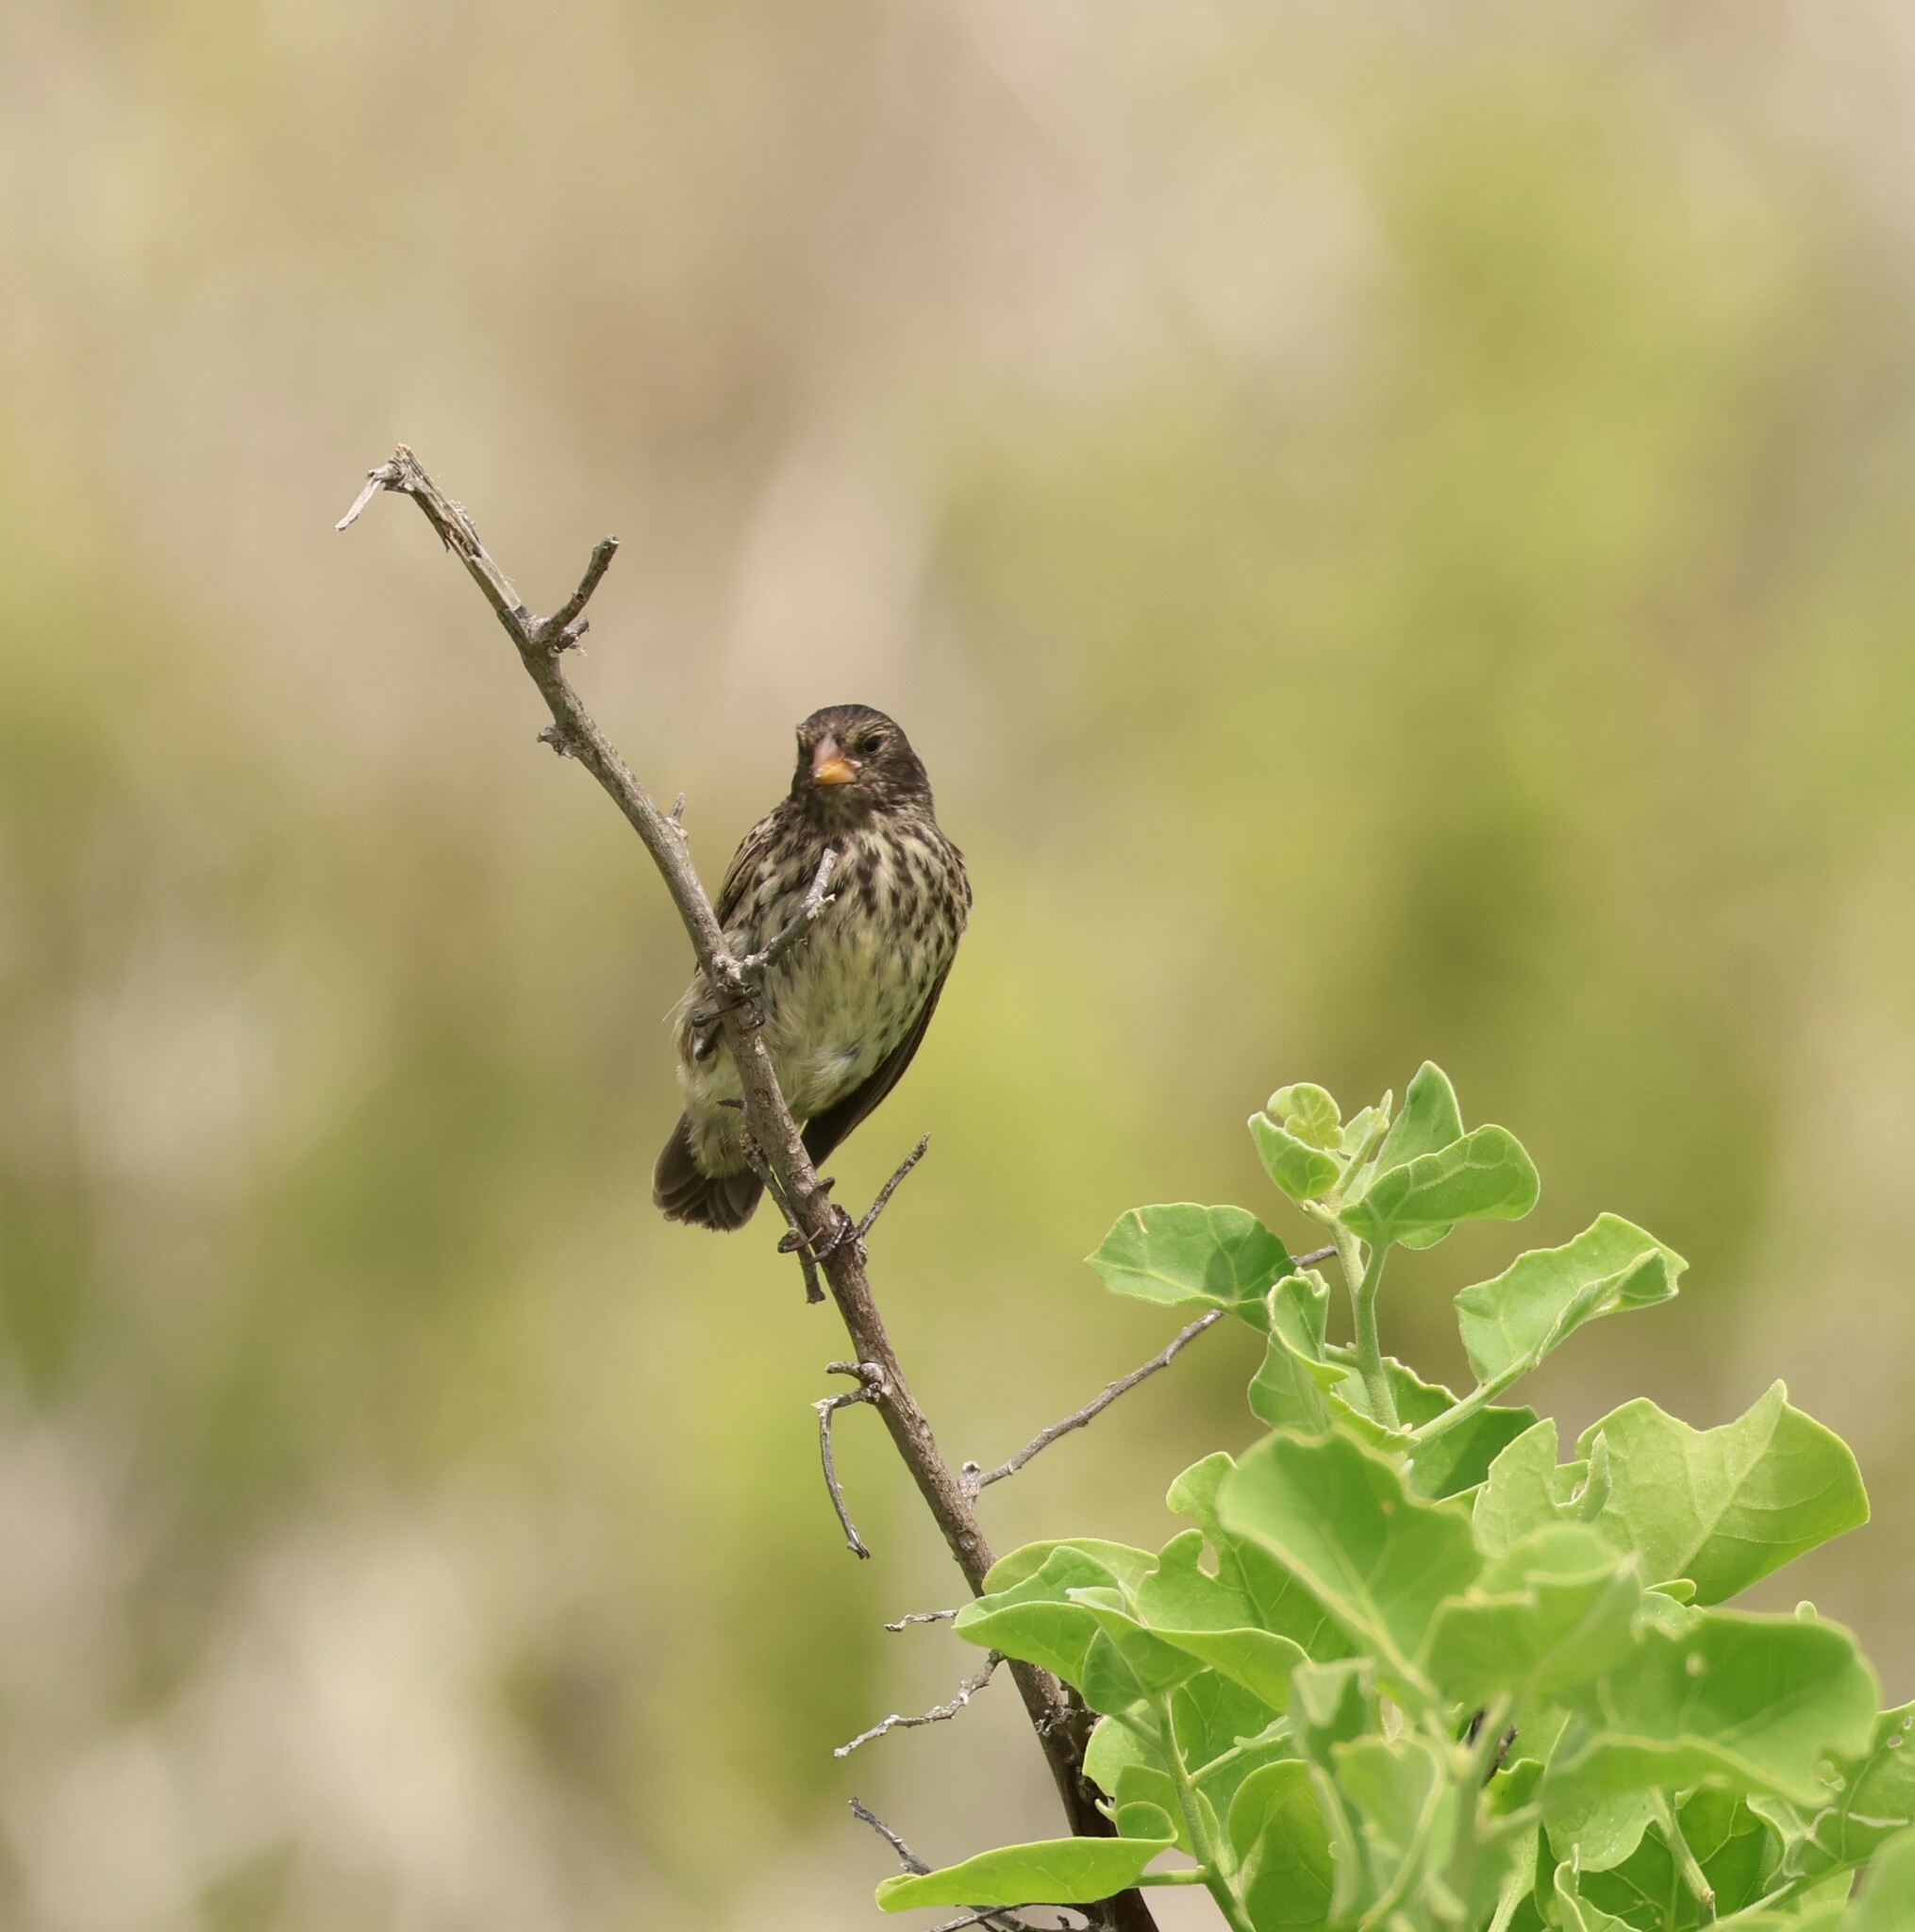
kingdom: Animalia
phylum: Chordata
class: Aves
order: Passeriformes
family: Thraupidae
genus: Geospiza
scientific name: Geospiza fuliginosa
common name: Small ground finch
